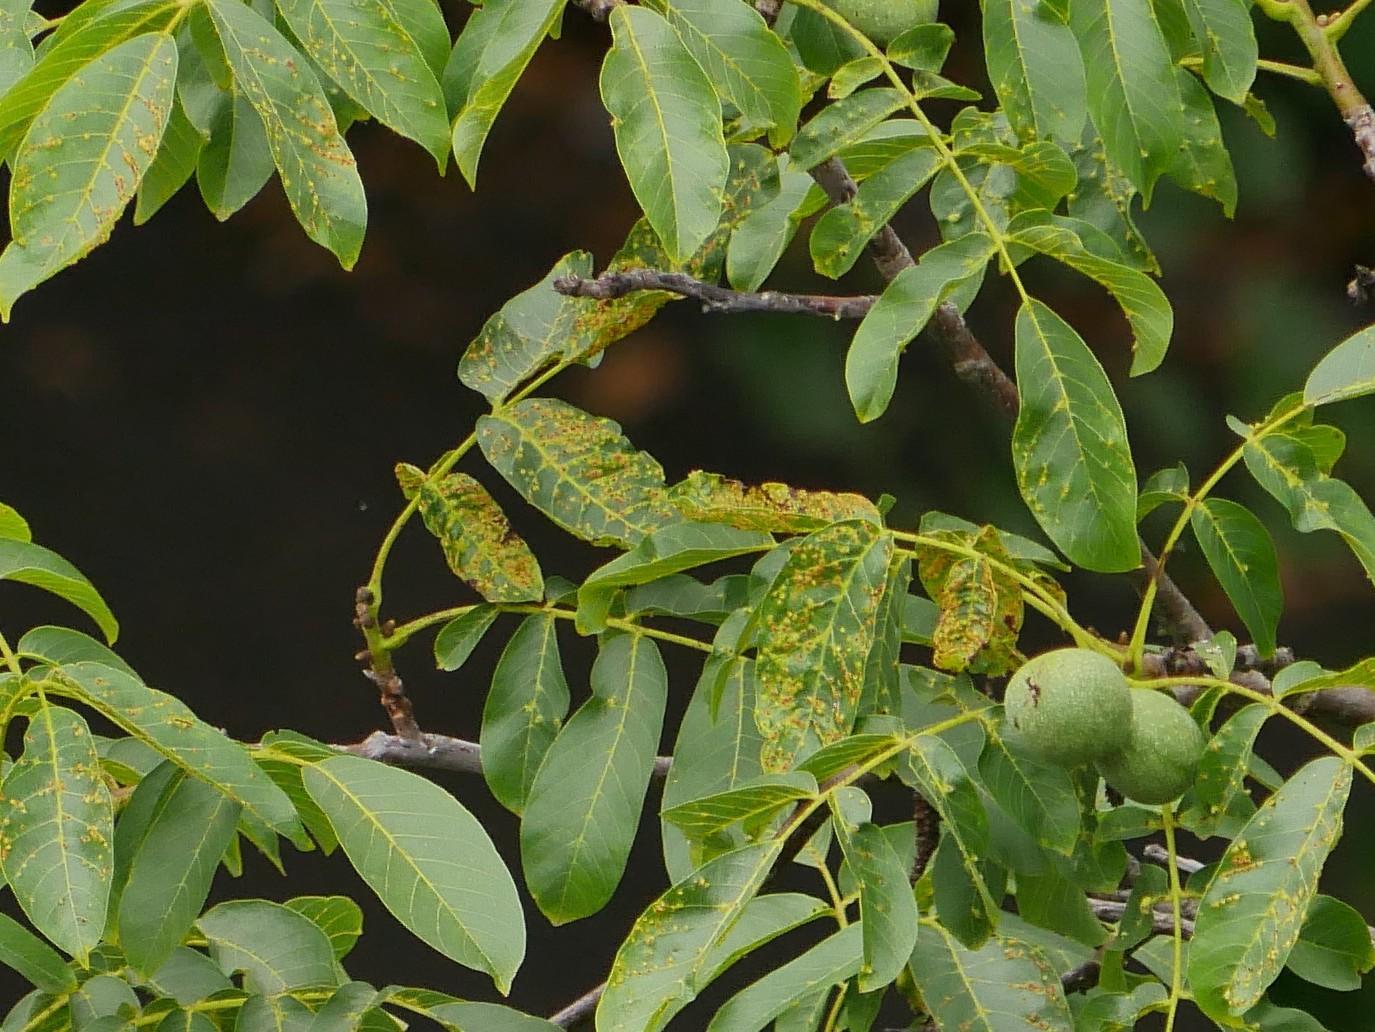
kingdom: Animalia
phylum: Arthropoda
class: Arachnida
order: Trombidiformes
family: Eriophyidae
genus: Aceria
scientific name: Aceria tristriata
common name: Persian walnut leaf blister mite
